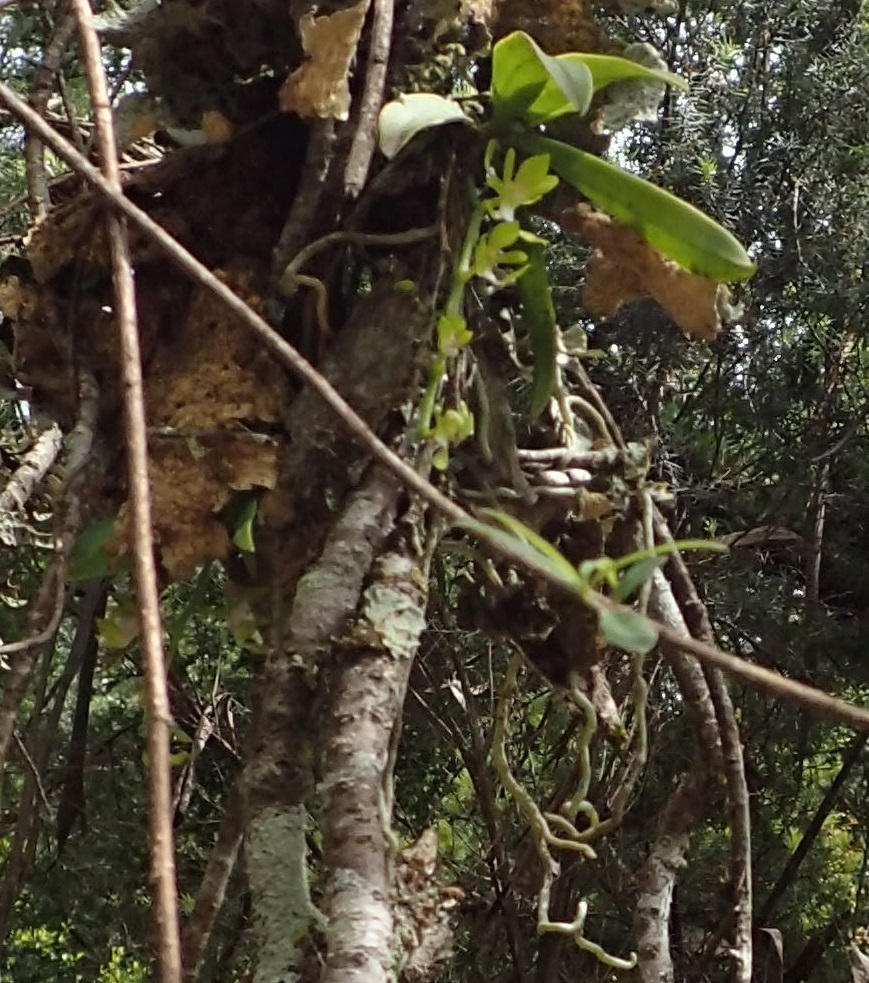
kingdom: Plantae
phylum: Tracheophyta
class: Liliopsida
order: Asparagales
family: Orchidaceae
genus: Sarcochilus
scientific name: Sarcochilus australis
